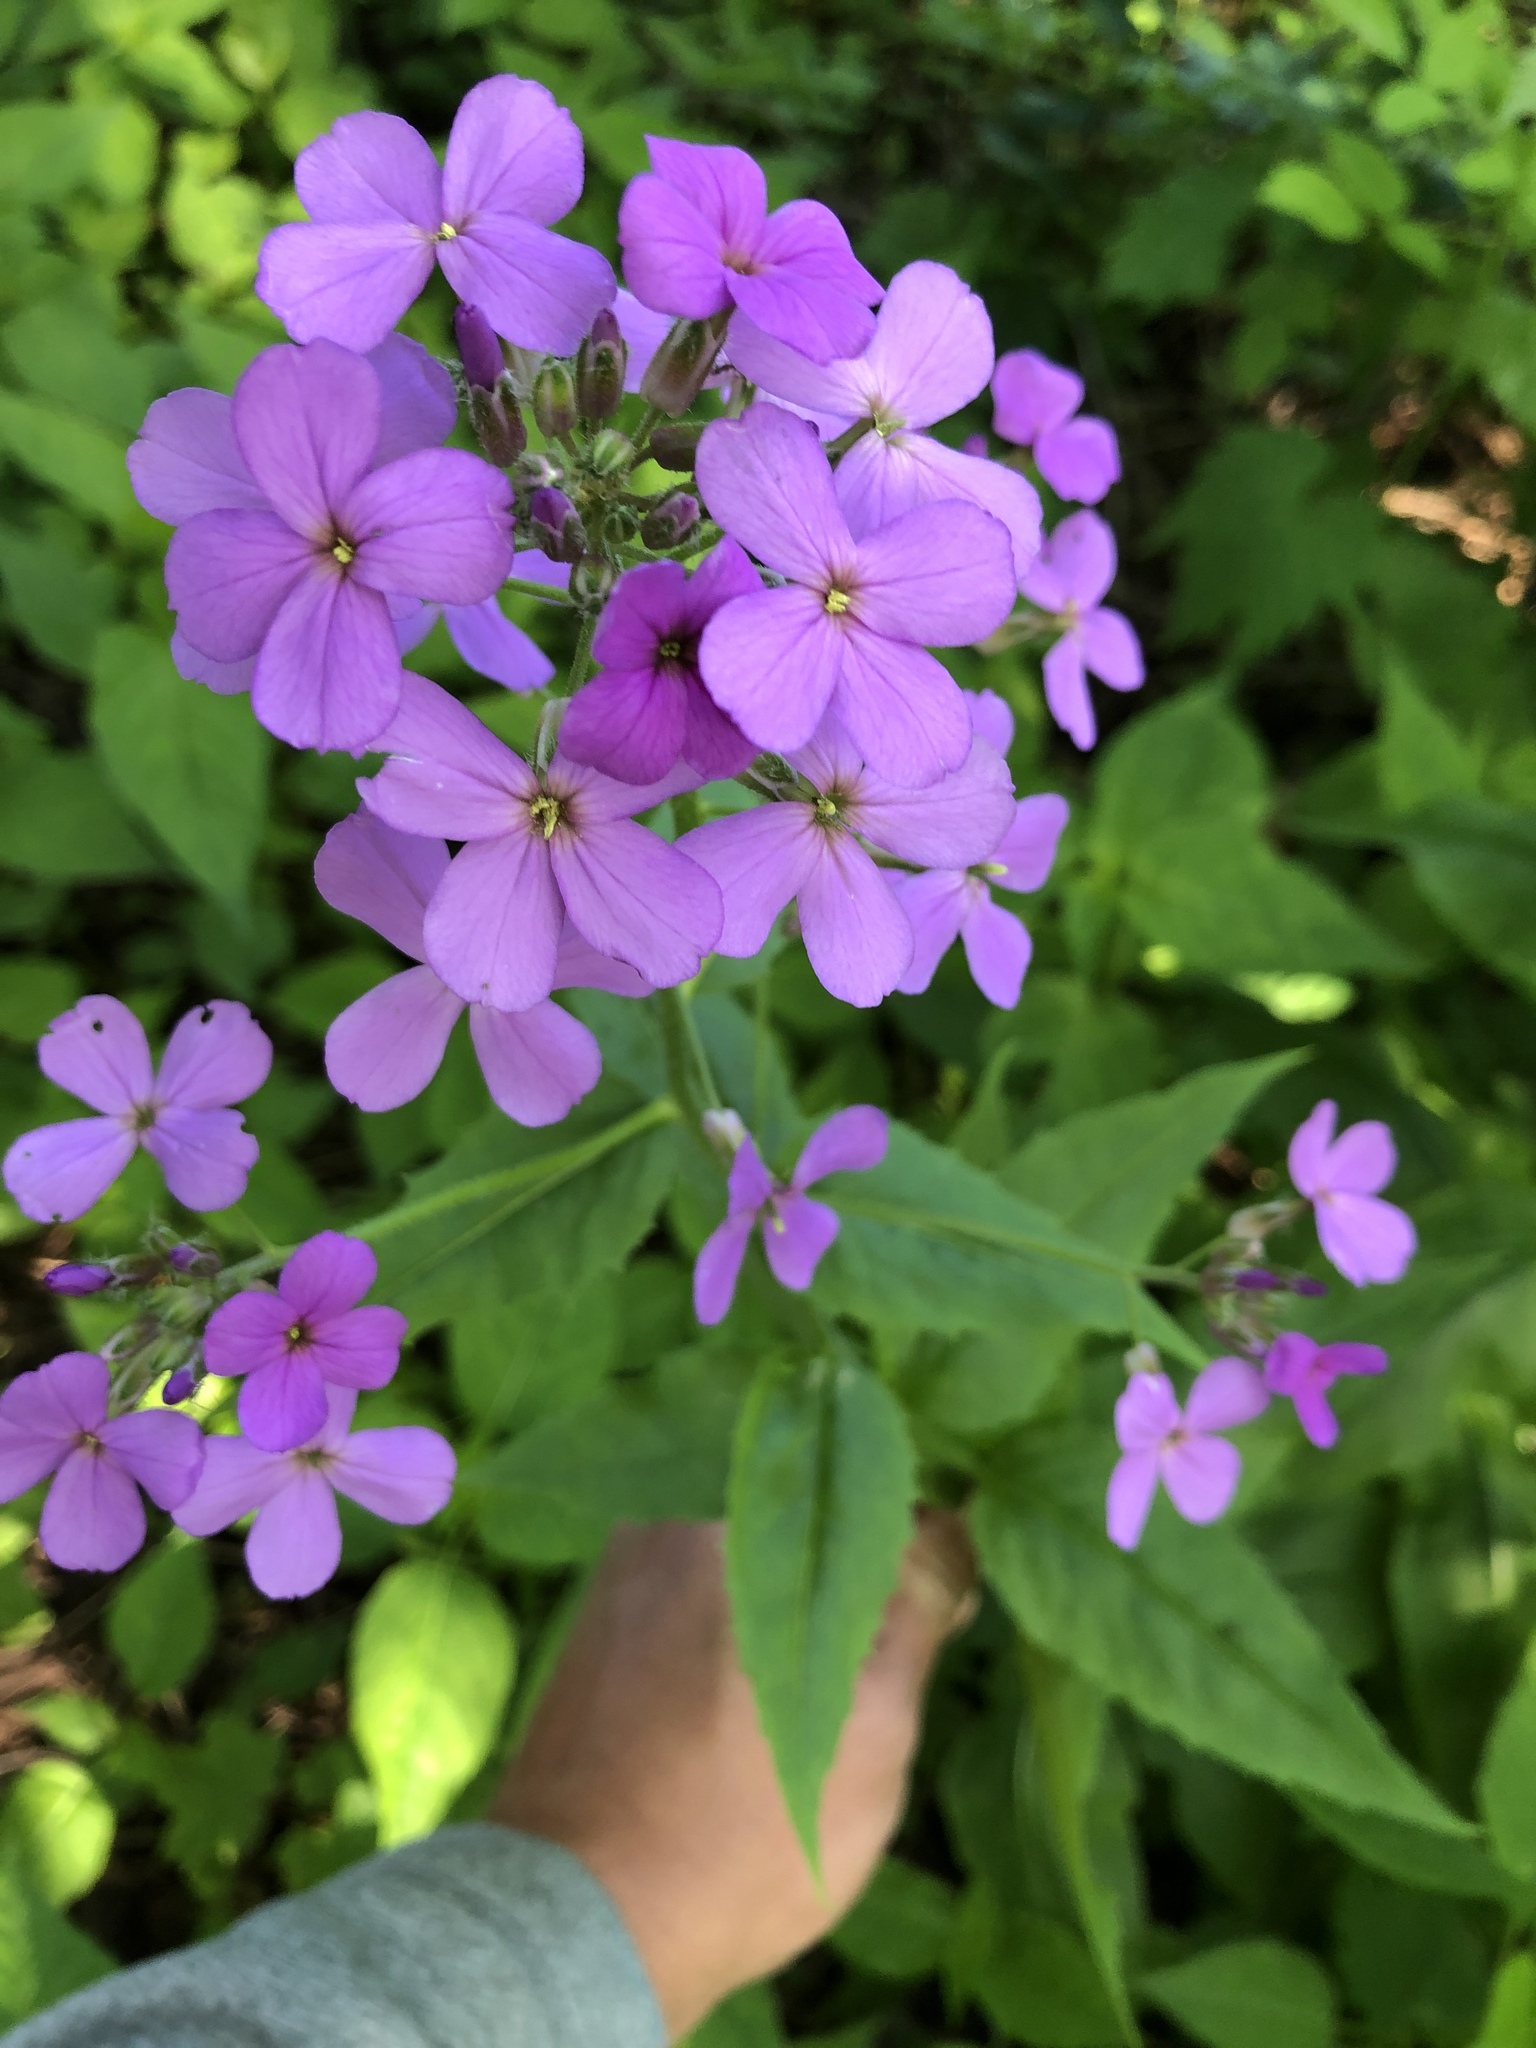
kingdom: Plantae
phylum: Tracheophyta
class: Magnoliopsida
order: Brassicales
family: Brassicaceae
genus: Hesperis
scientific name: Hesperis matronalis
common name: Dame's-violet
